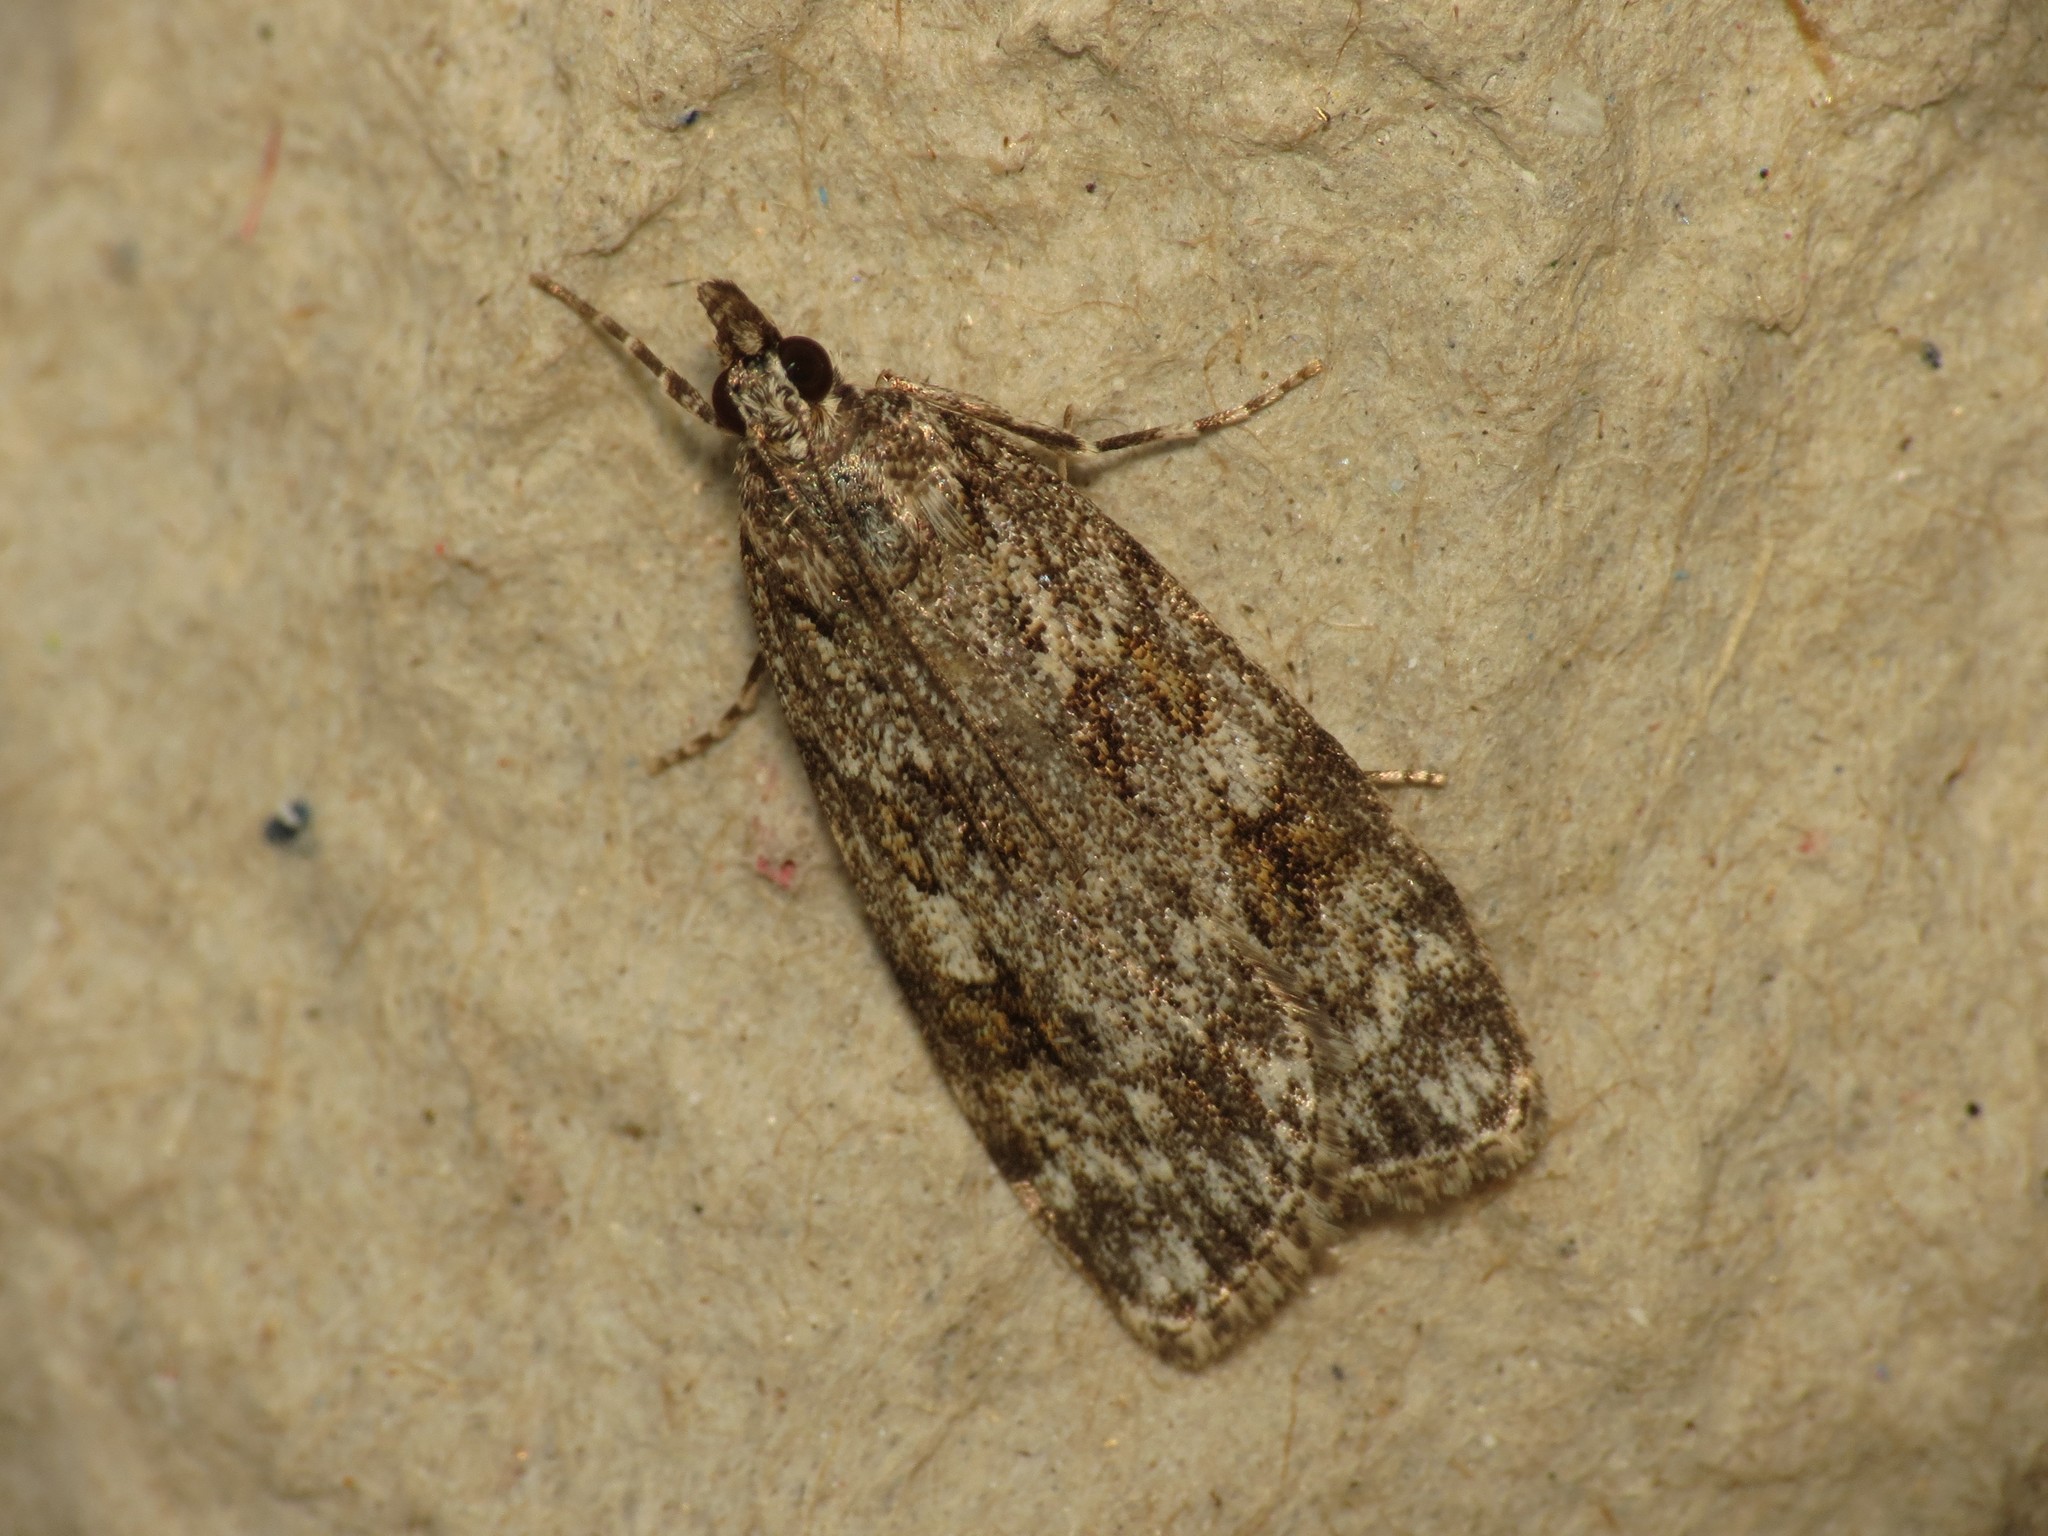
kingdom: Animalia
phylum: Arthropoda
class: Insecta
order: Lepidoptera
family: Crambidae
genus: Scoparia
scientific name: Scoparia ambigualis
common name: Common grey
